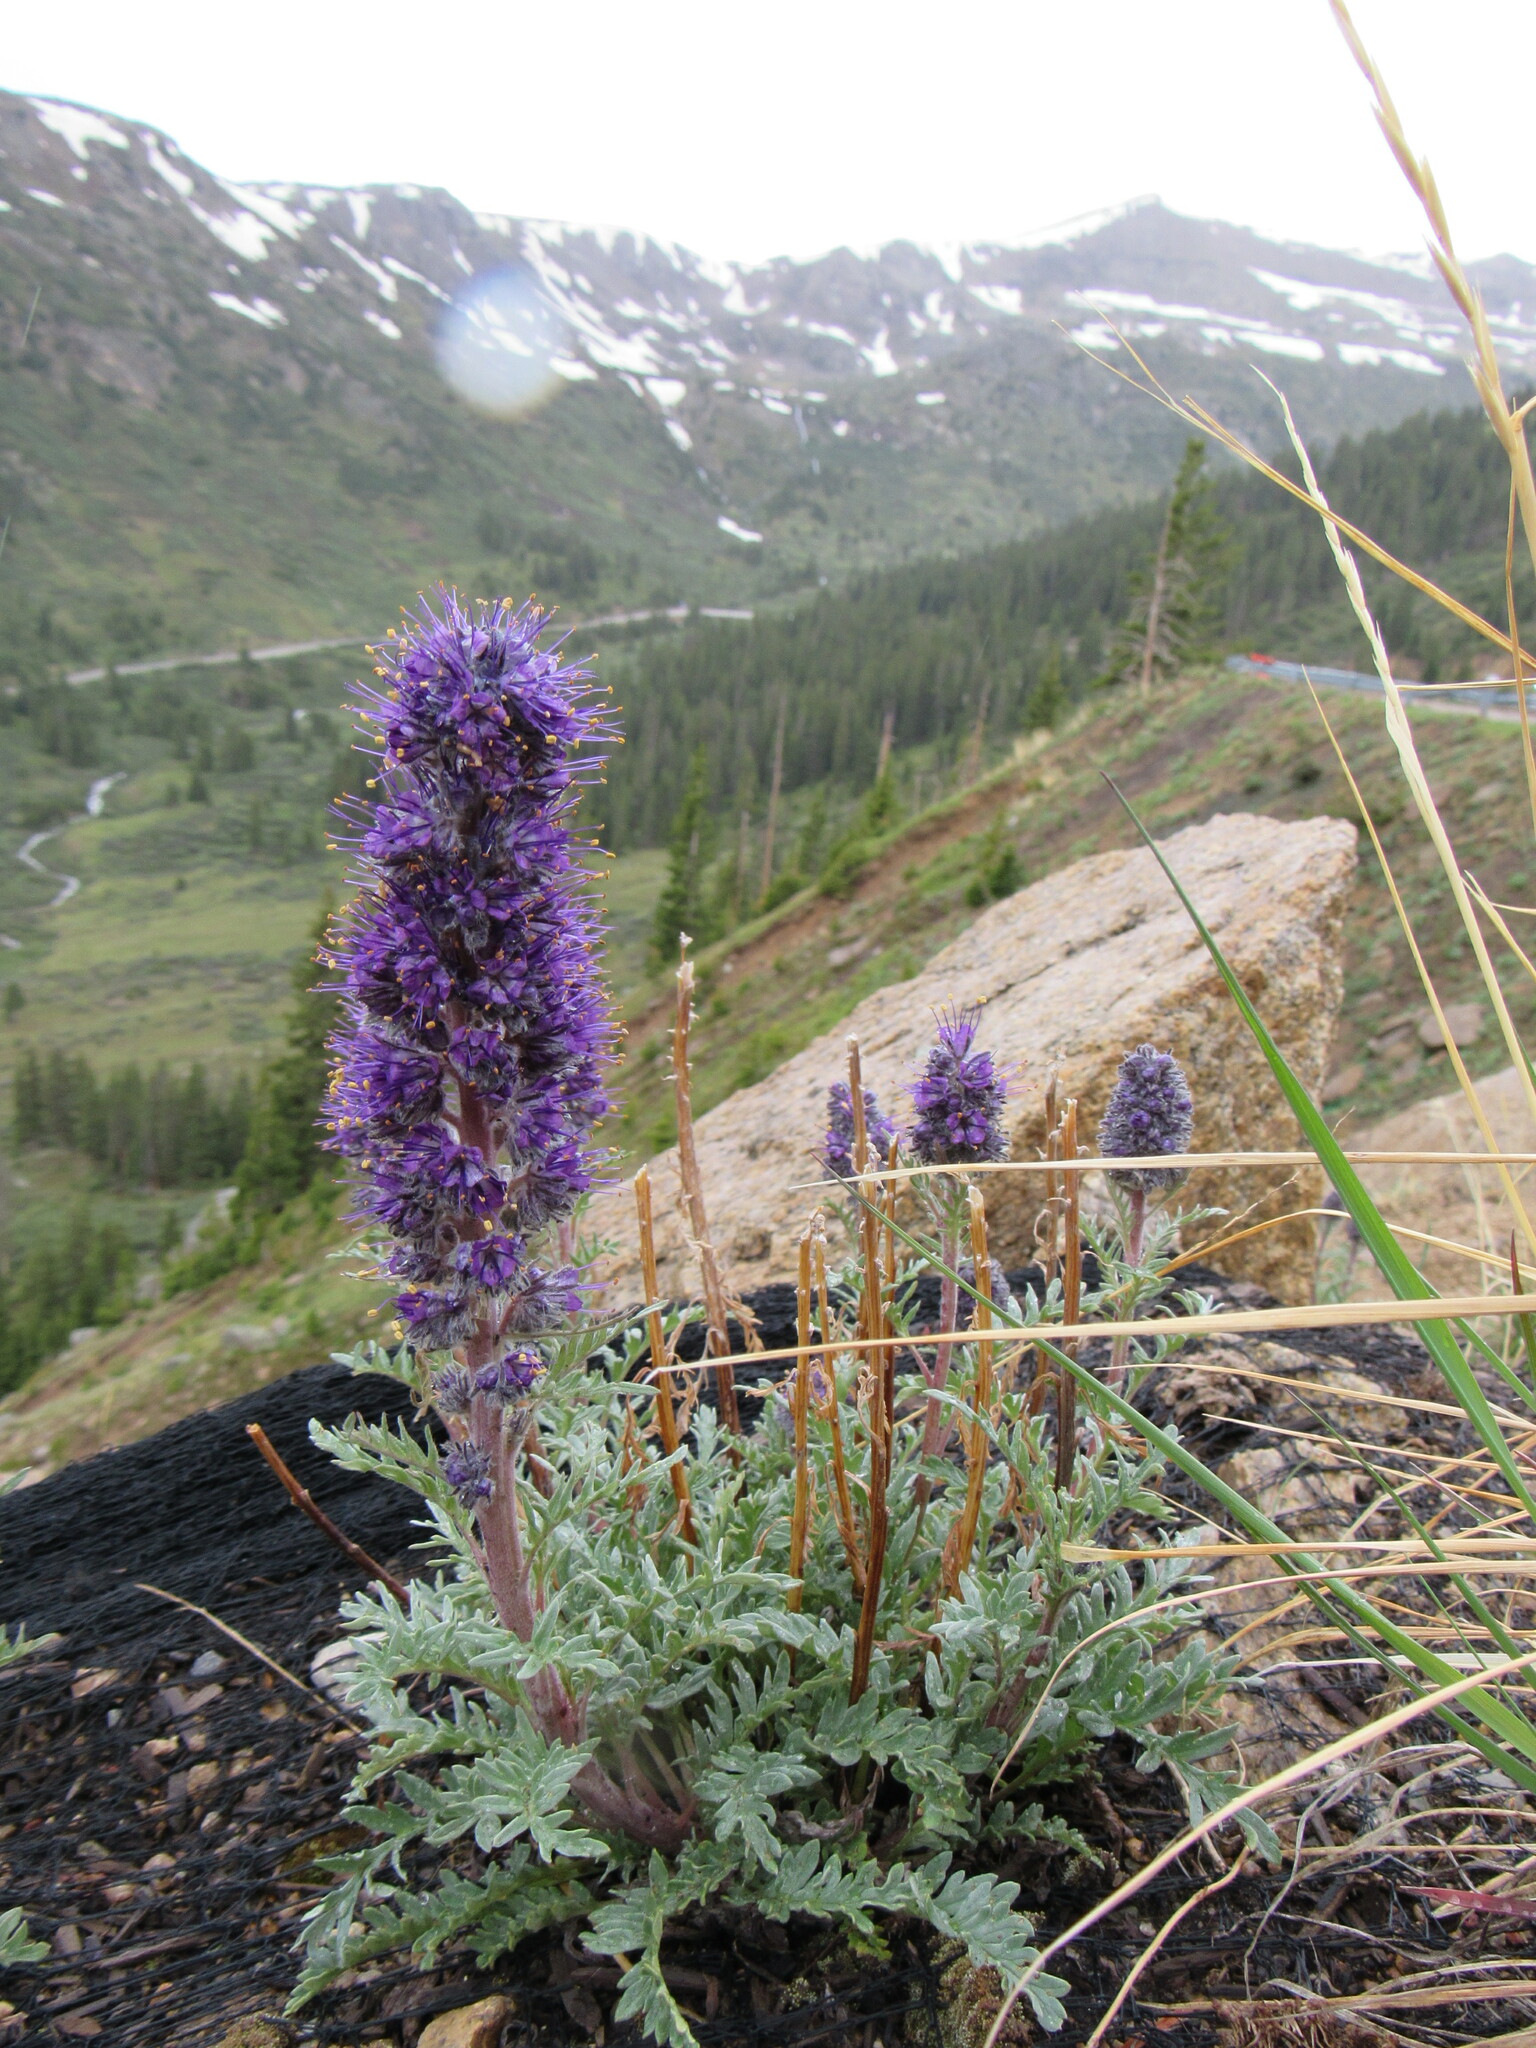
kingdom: Plantae
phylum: Tracheophyta
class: Magnoliopsida
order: Boraginales
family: Hydrophyllaceae
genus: Phacelia
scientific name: Phacelia sericea
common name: Silky phacelia
